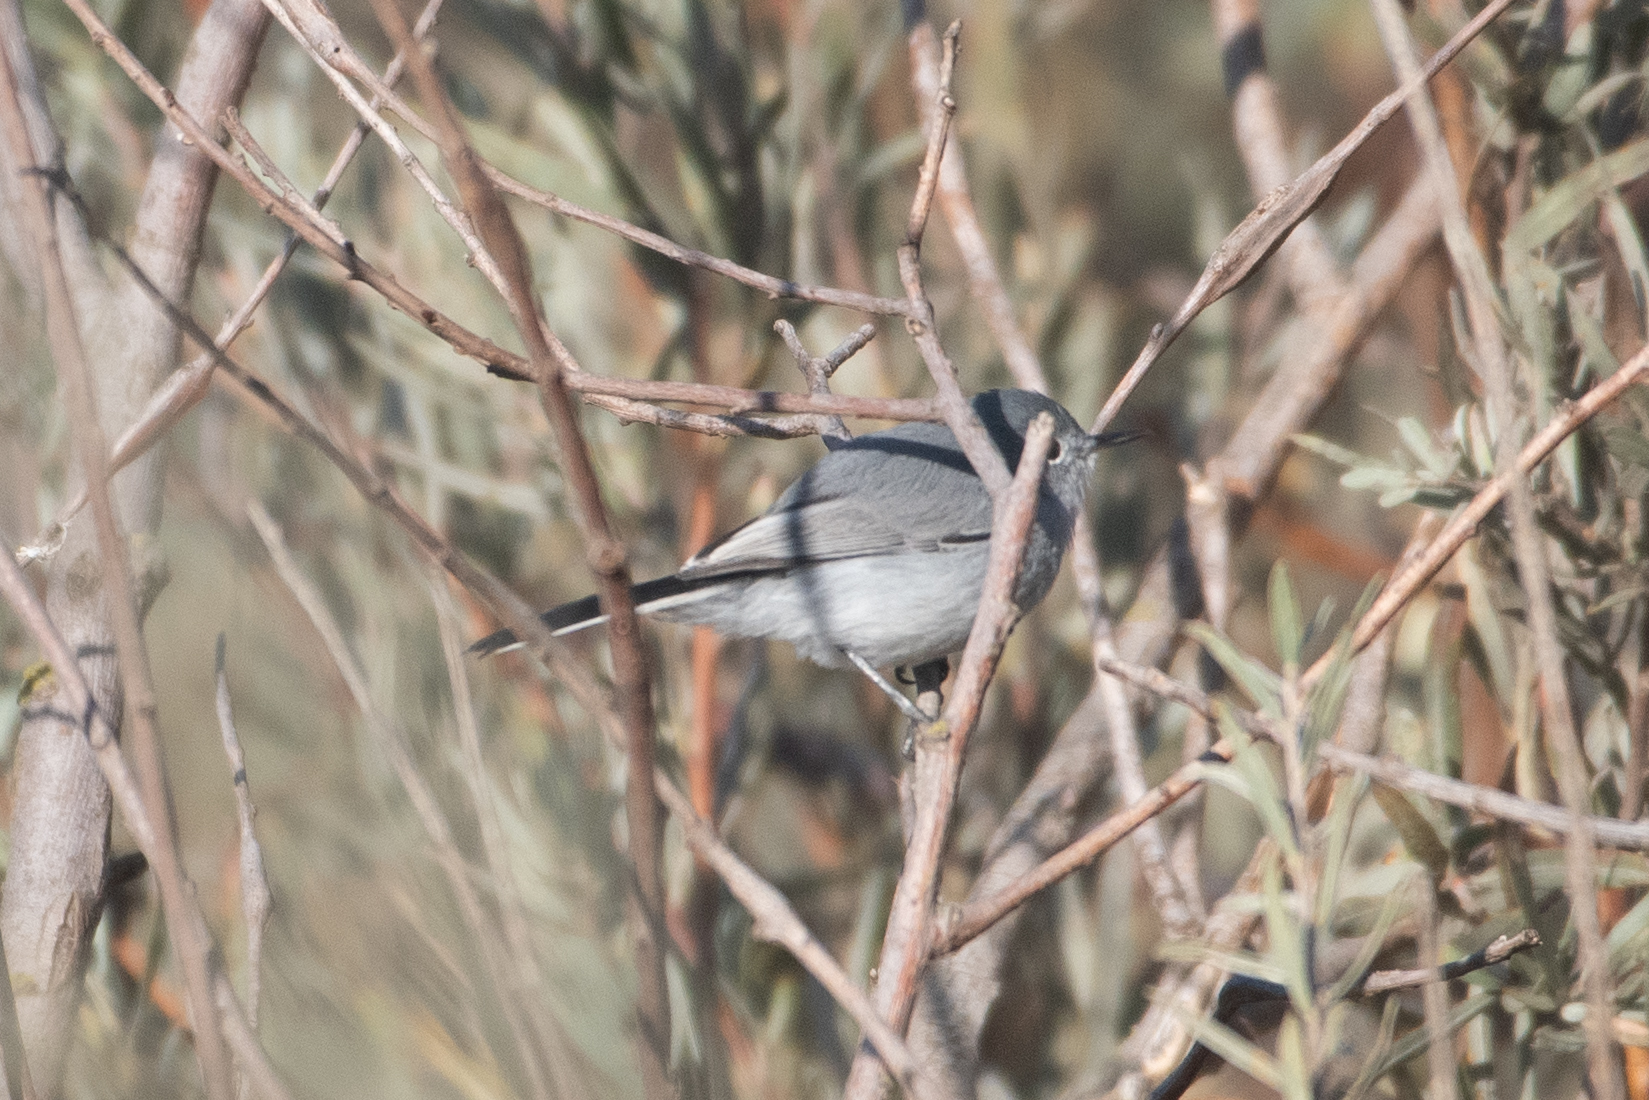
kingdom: Animalia
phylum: Chordata
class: Aves
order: Passeriformes
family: Polioptilidae
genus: Polioptila
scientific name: Polioptila caerulea
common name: Blue-gray gnatcatcher
